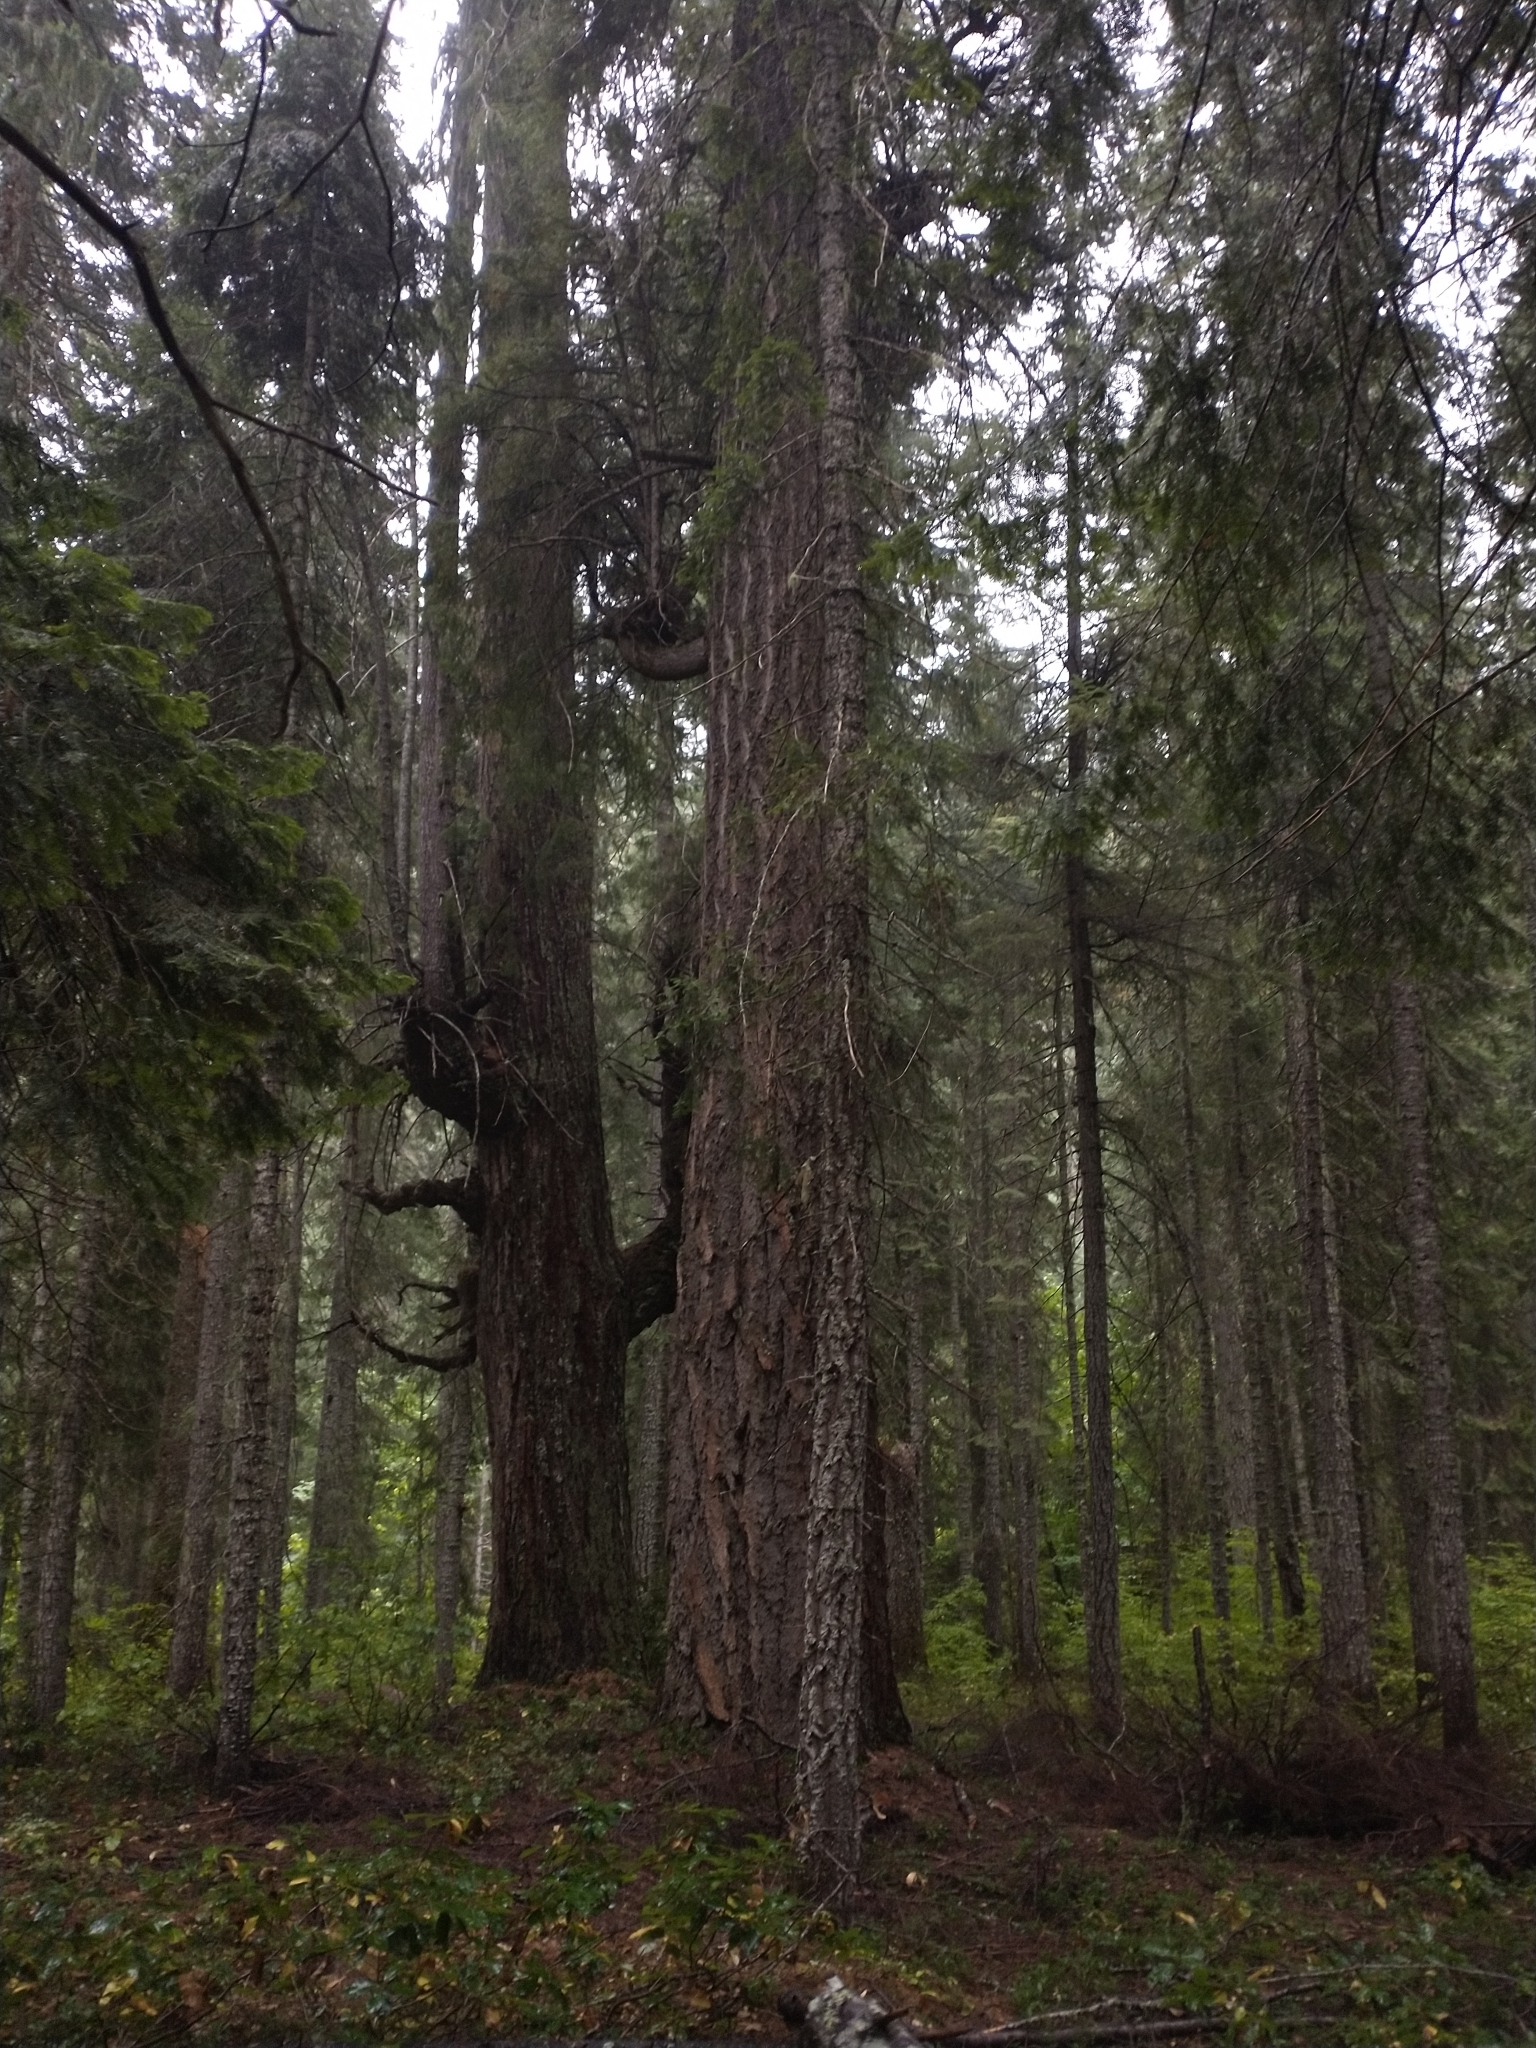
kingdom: Plantae
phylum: Tracheophyta
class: Pinopsida
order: Pinales
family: Pinaceae
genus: Pseudotsuga
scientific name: Pseudotsuga menziesii
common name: Douglas fir
